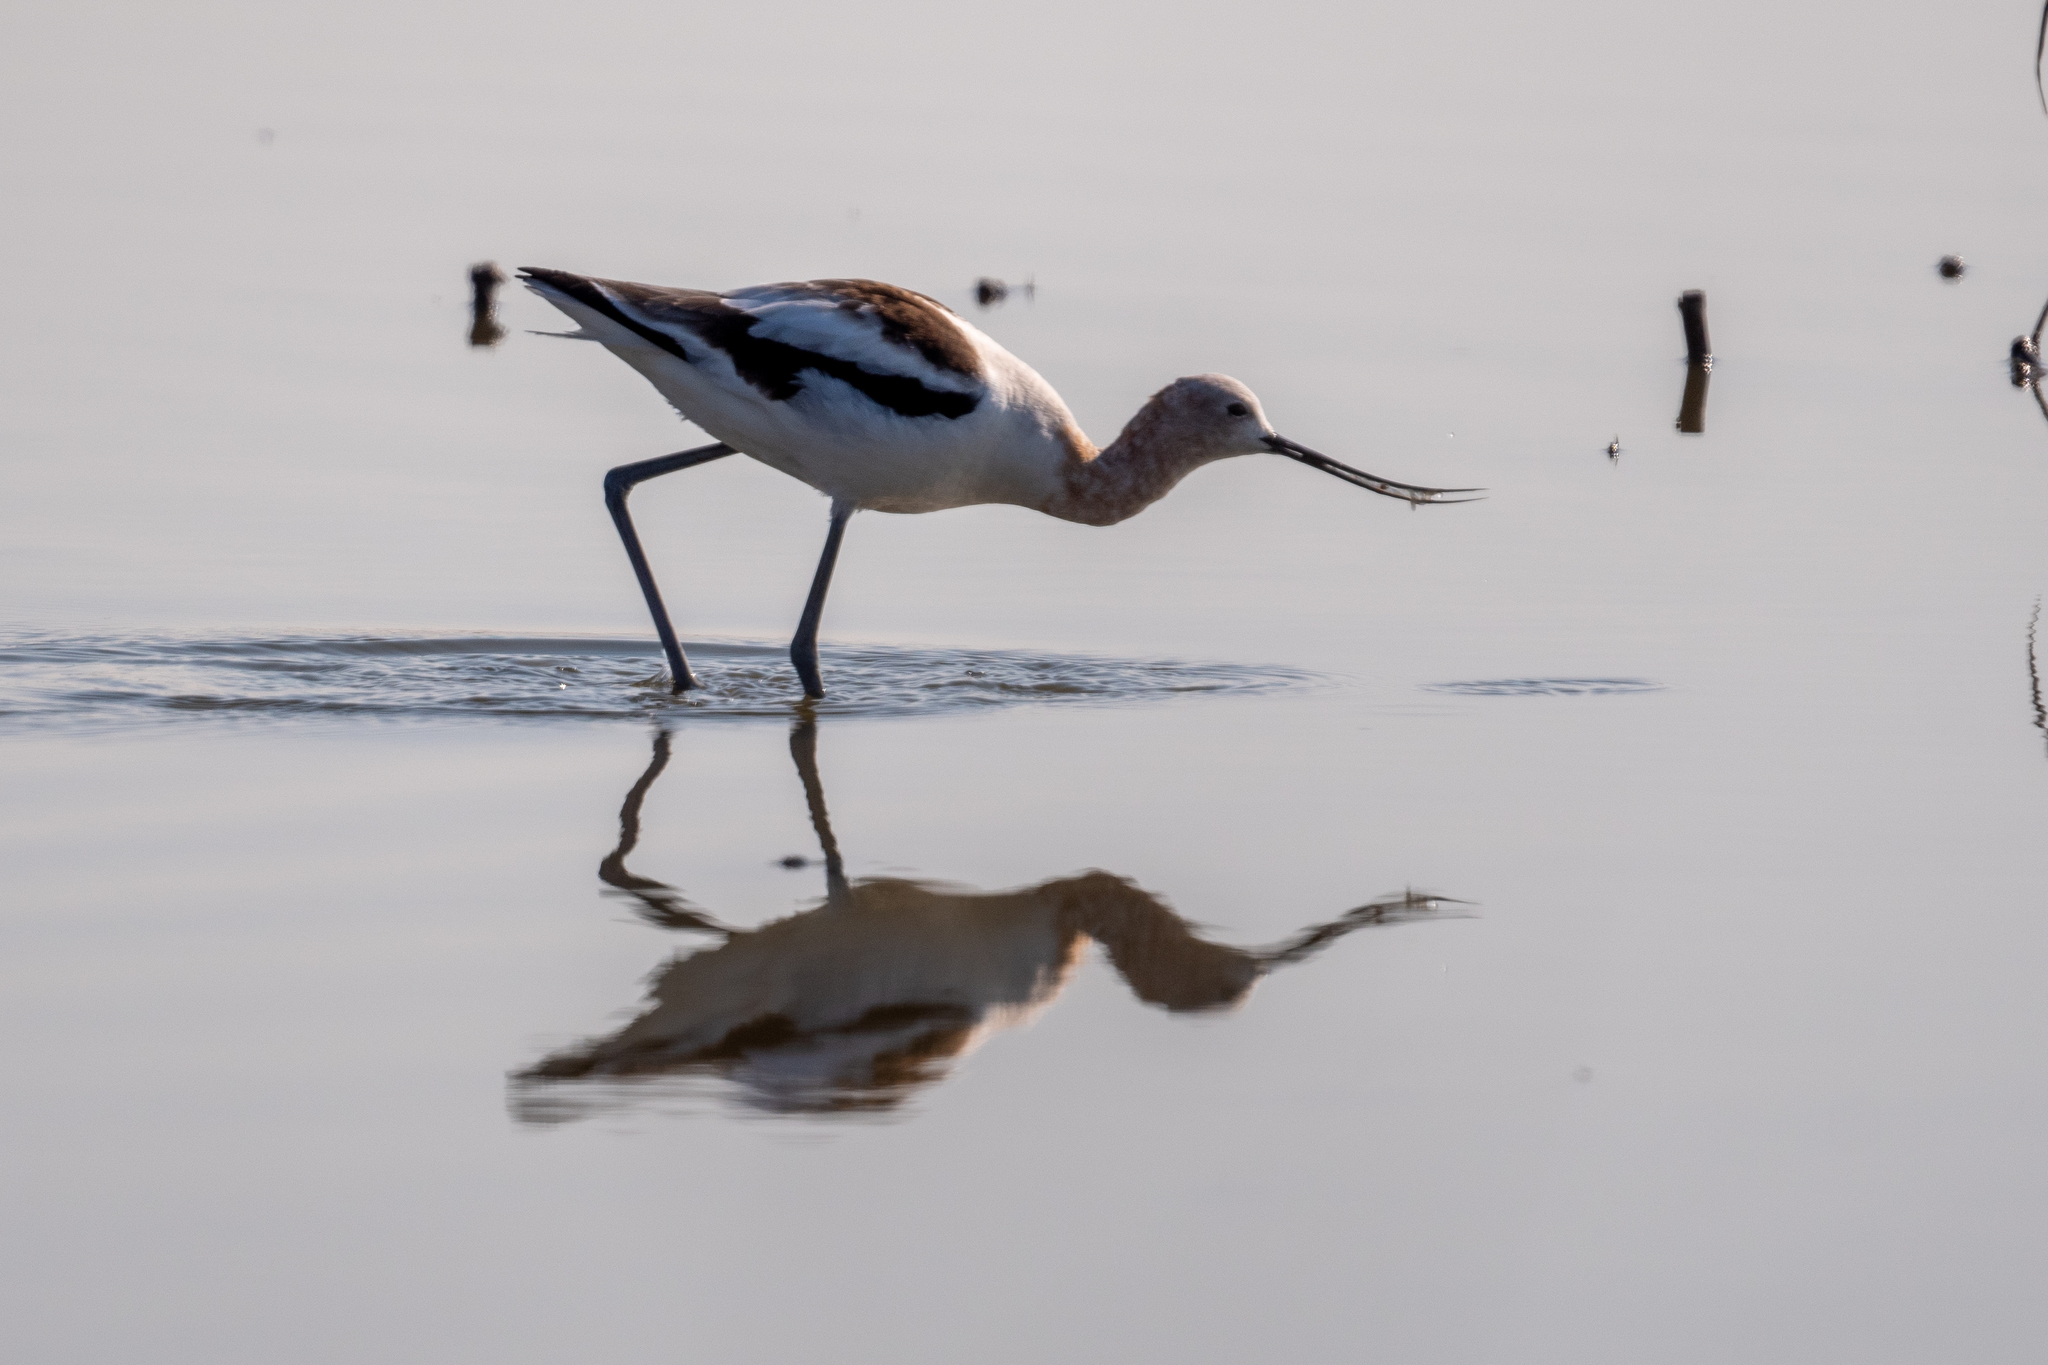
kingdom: Animalia
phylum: Chordata
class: Aves
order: Charadriiformes
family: Recurvirostridae
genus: Recurvirostra
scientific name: Recurvirostra americana
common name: American avocet
